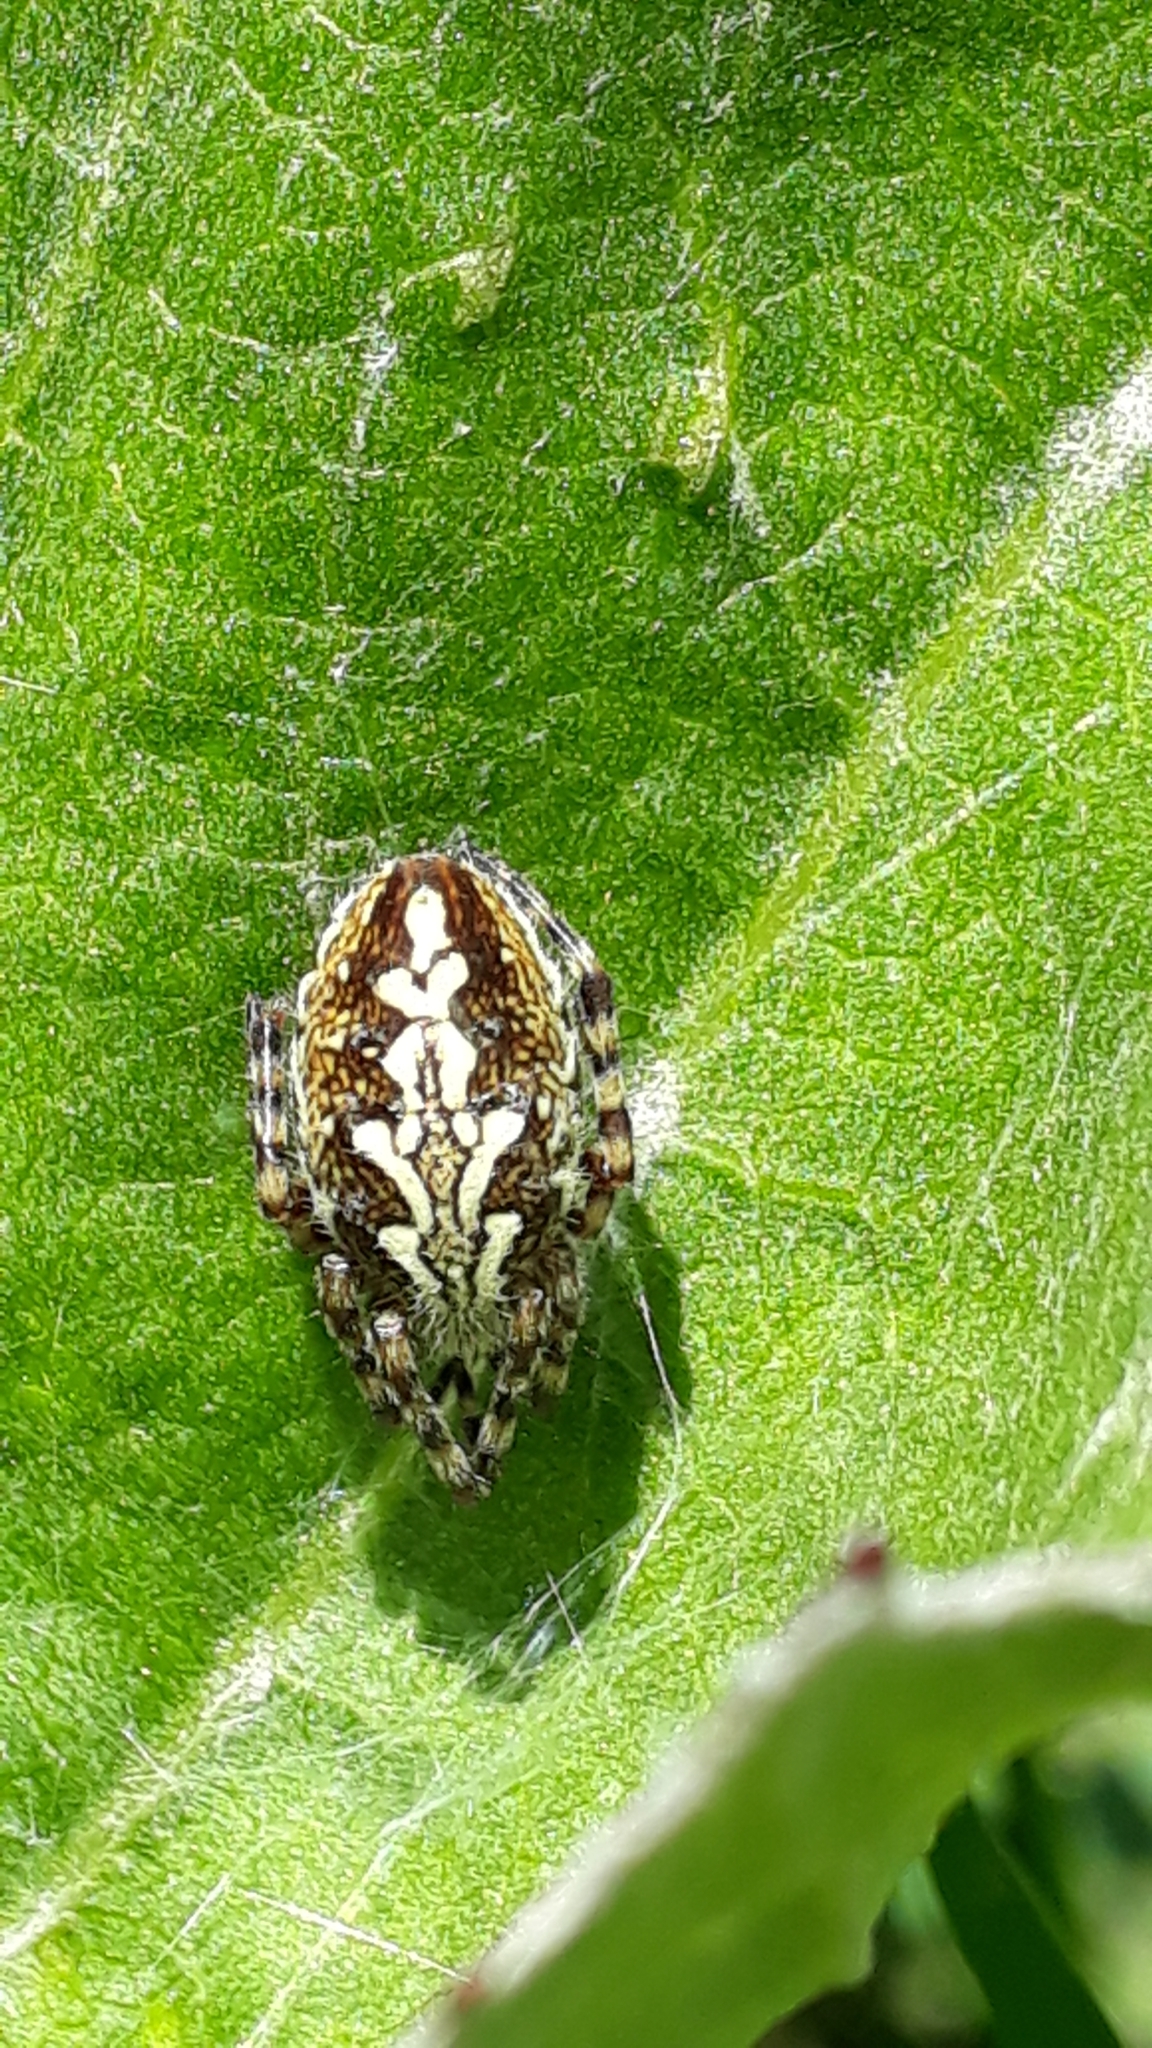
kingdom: Animalia
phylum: Arthropoda
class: Arachnida
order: Araneae
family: Araneidae
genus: Aculepeira
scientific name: Aculepeira ceropegia
